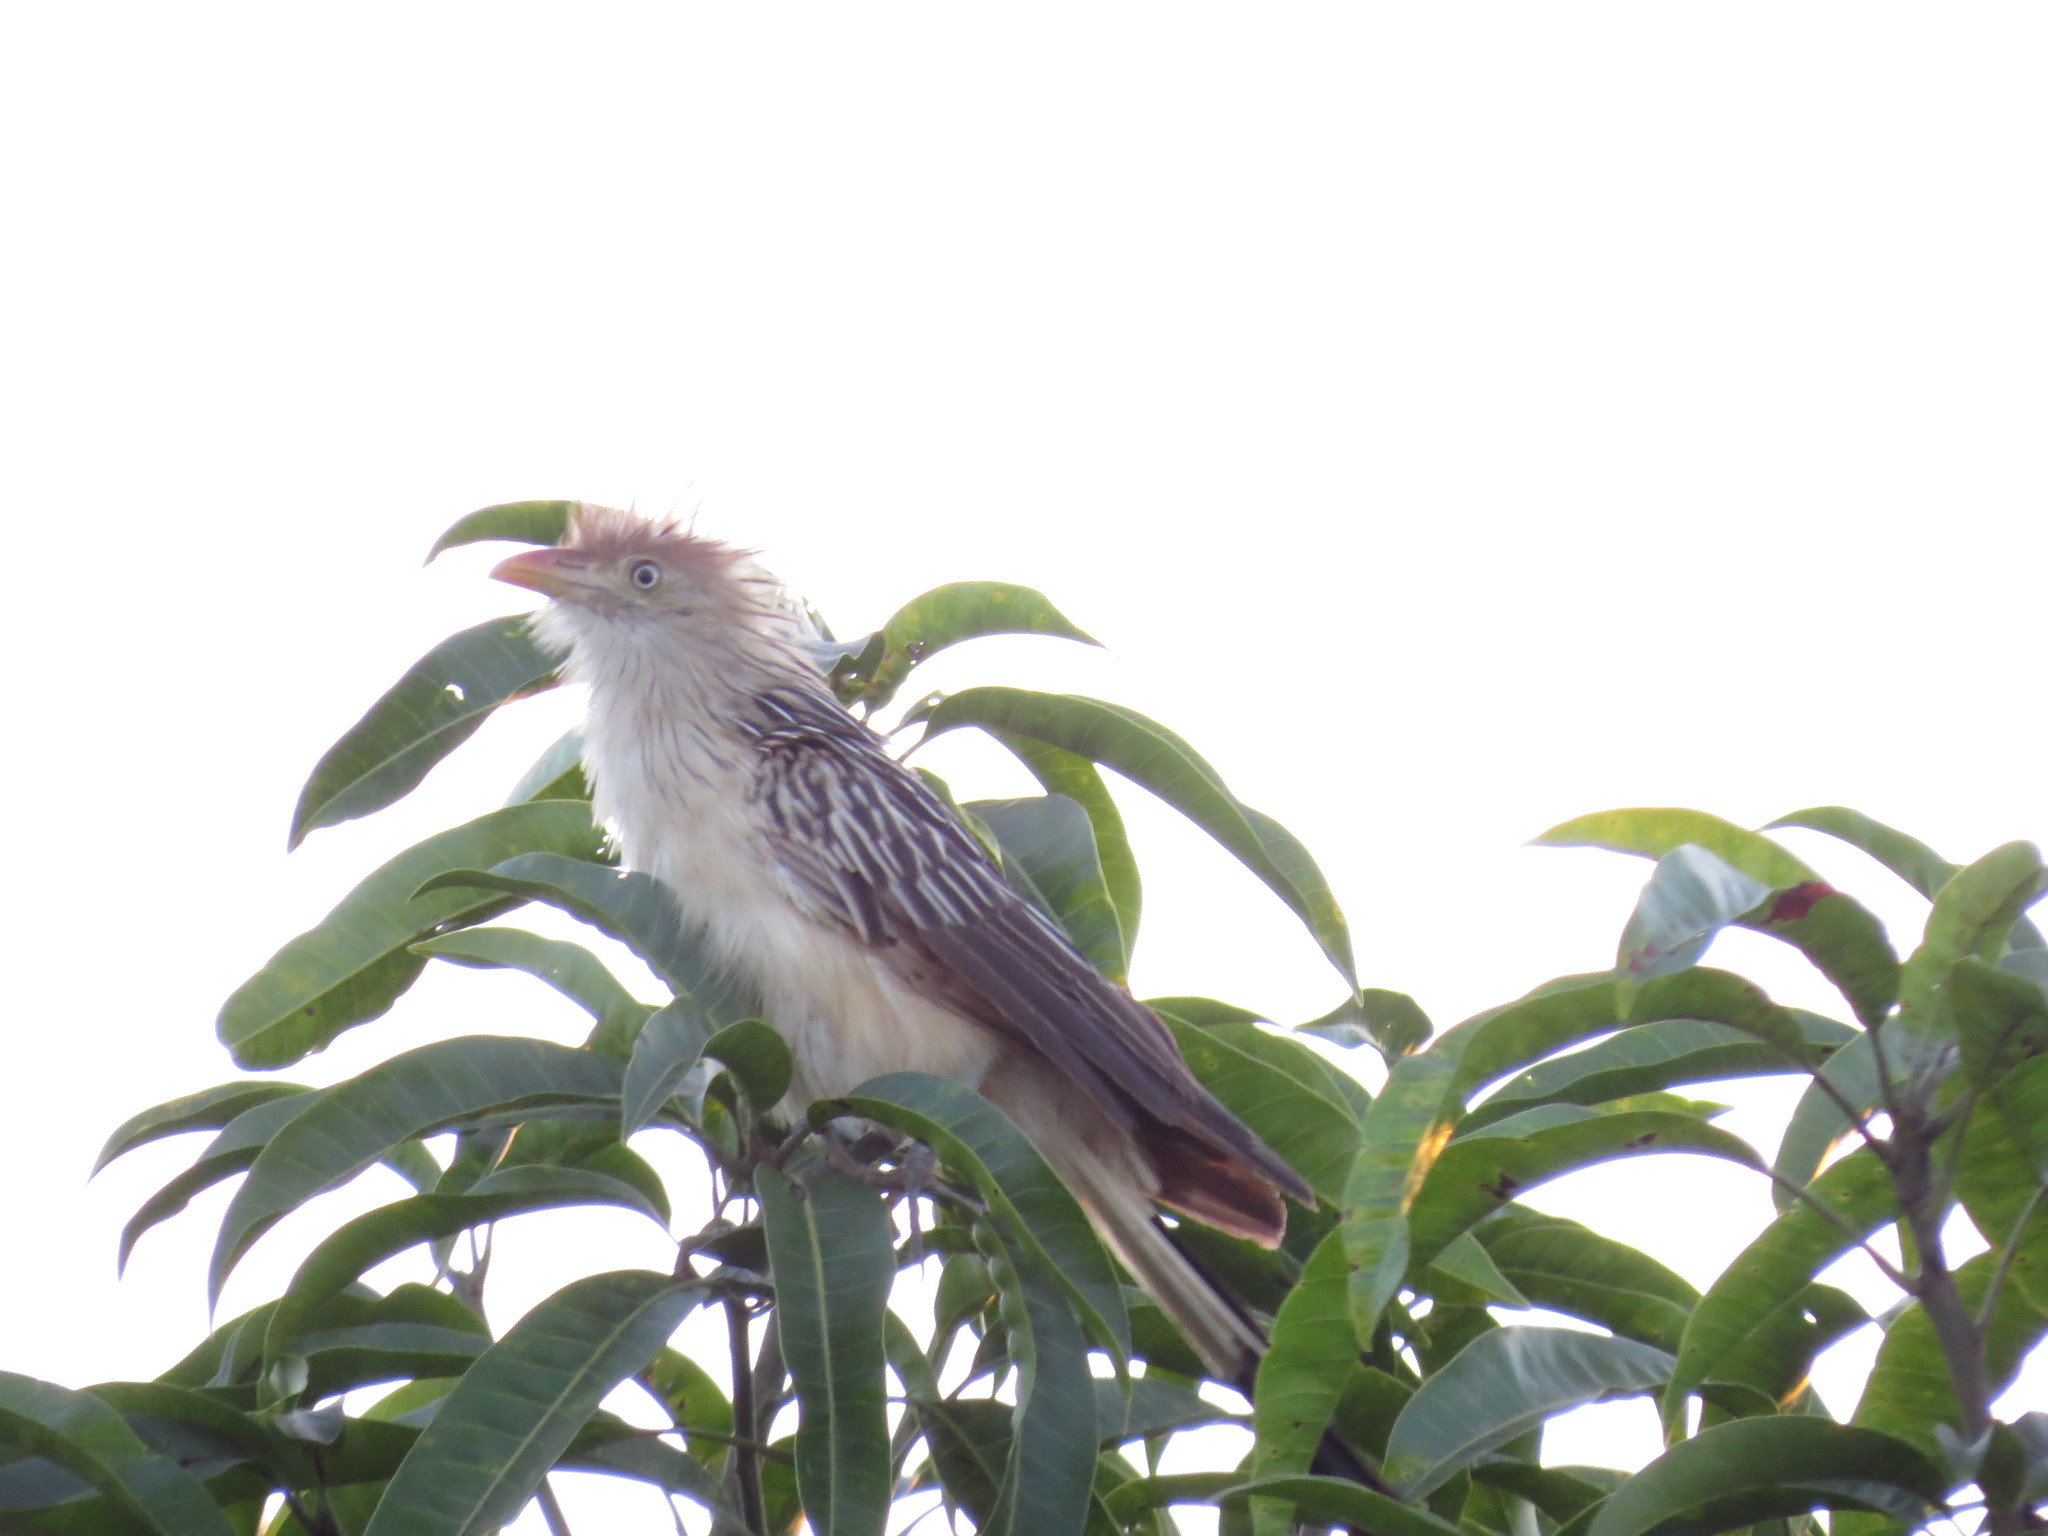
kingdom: Animalia
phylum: Chordata
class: Aves
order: Cuculiformes
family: Cuculidae
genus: Guira
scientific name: Guira guira
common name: Guira cuckoo
